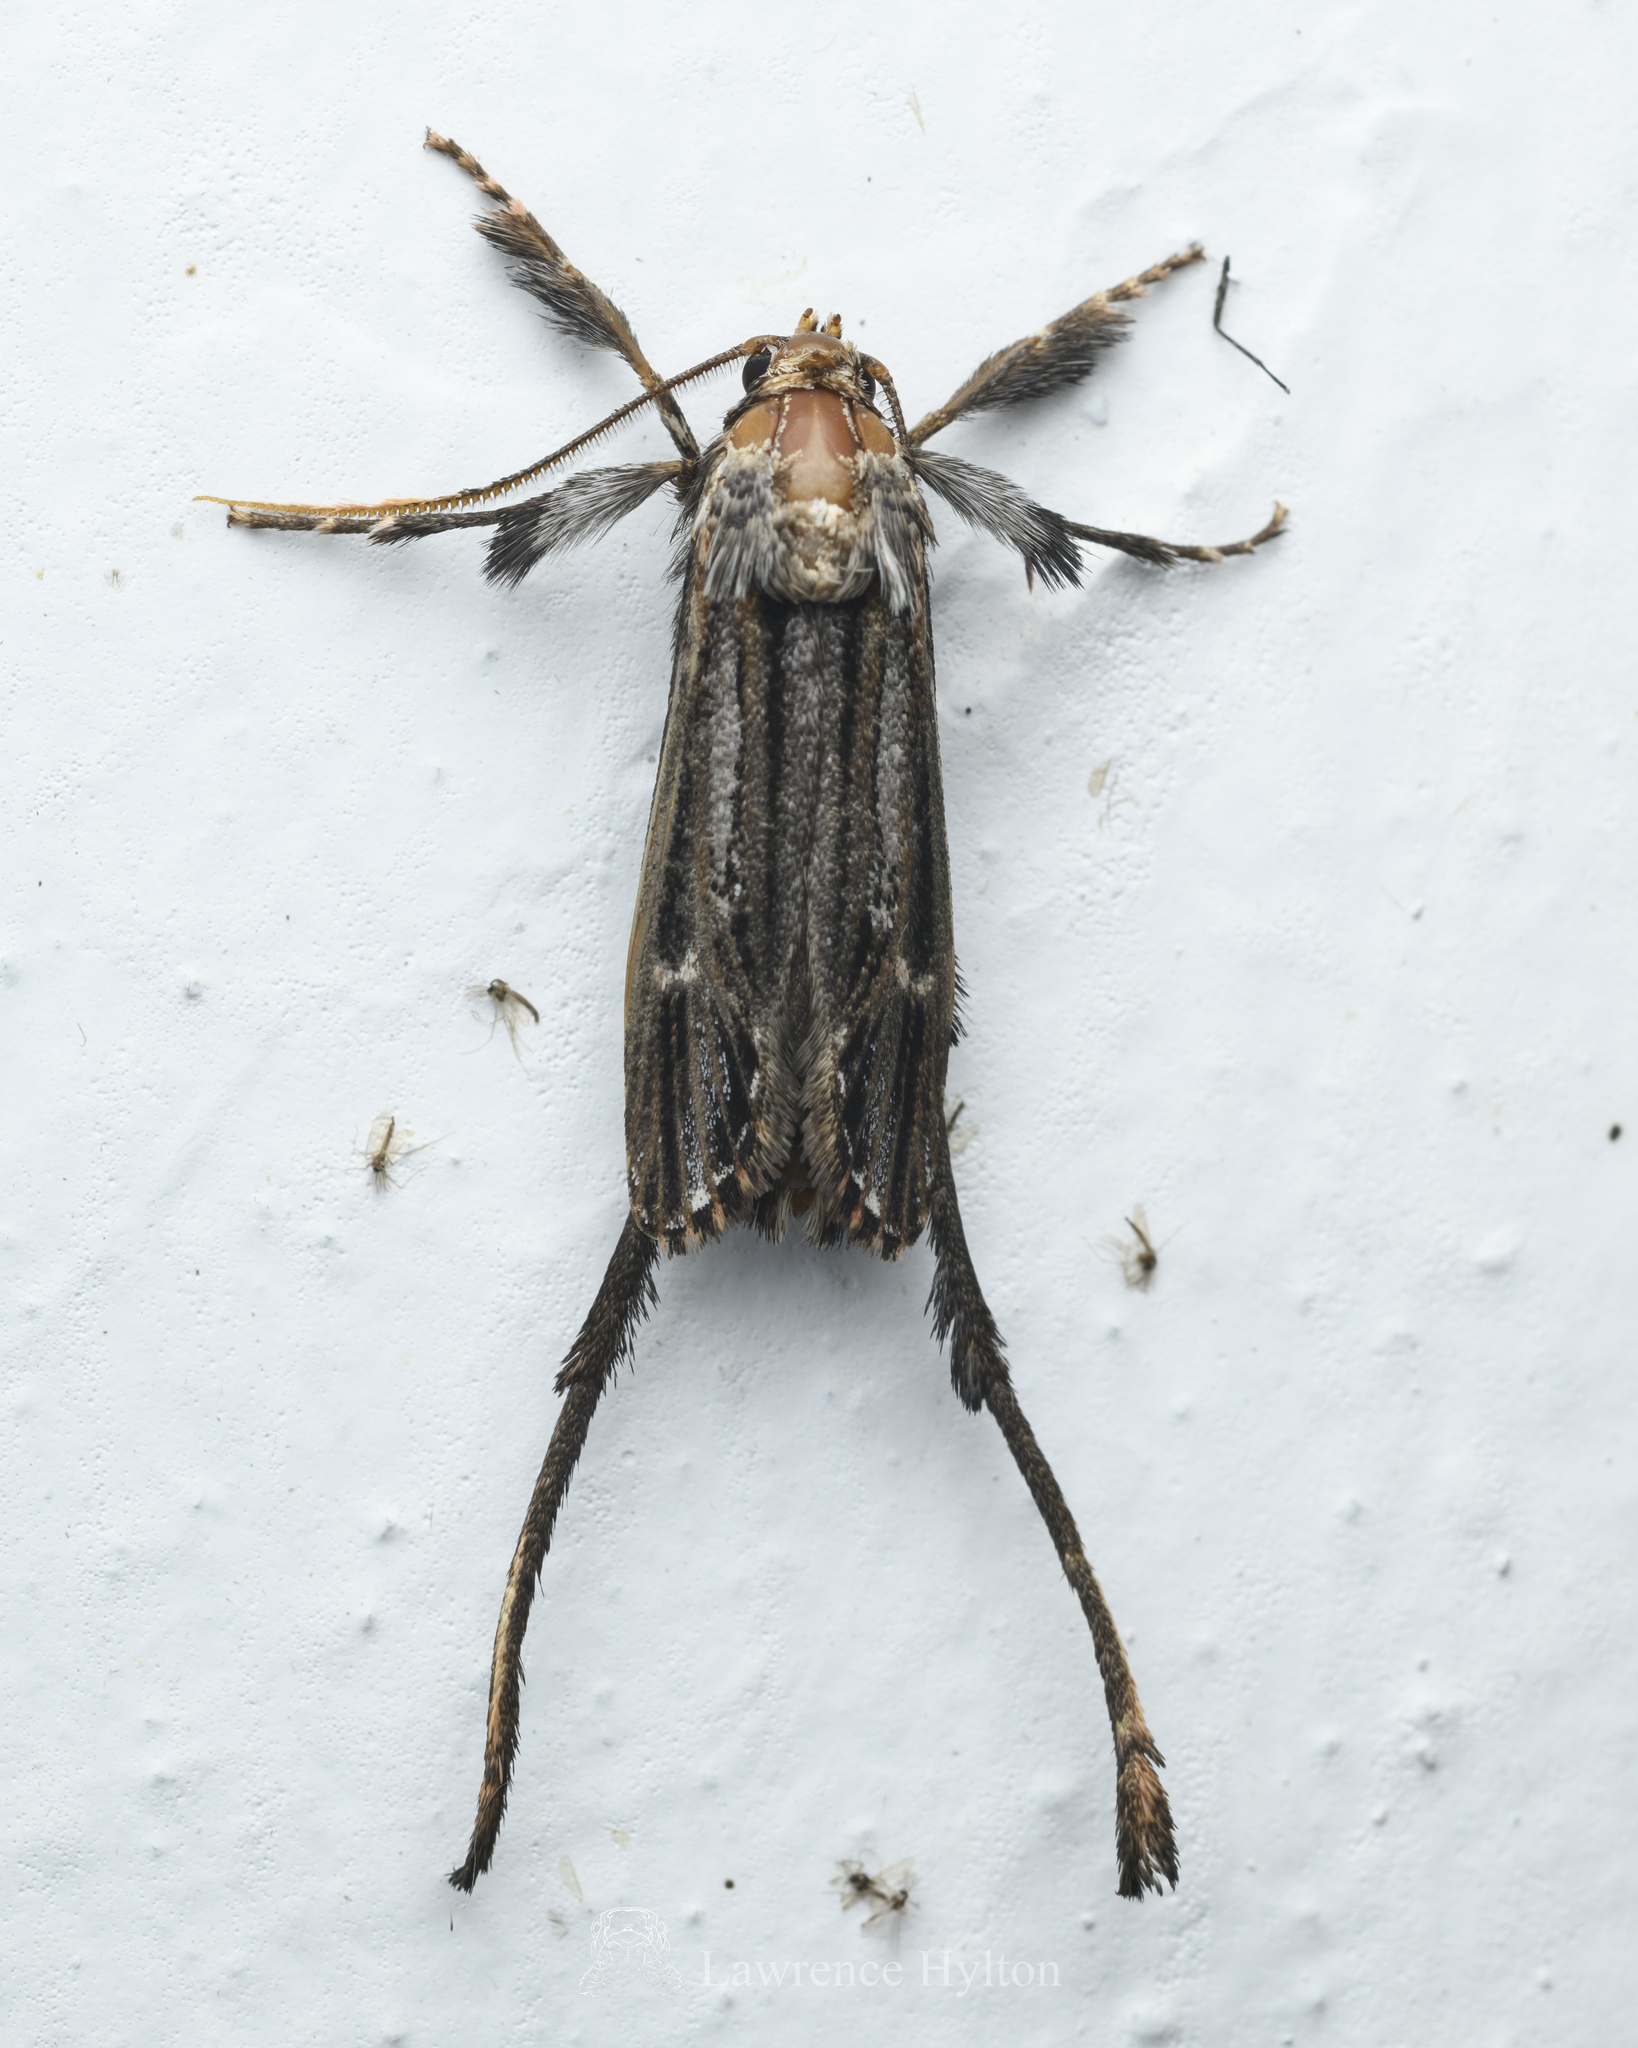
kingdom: Animalia
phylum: Arthropoda
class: Insecta
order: Lepidoptera
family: Ashinagidae
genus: Ashinaga
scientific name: Ashinaga longimana
